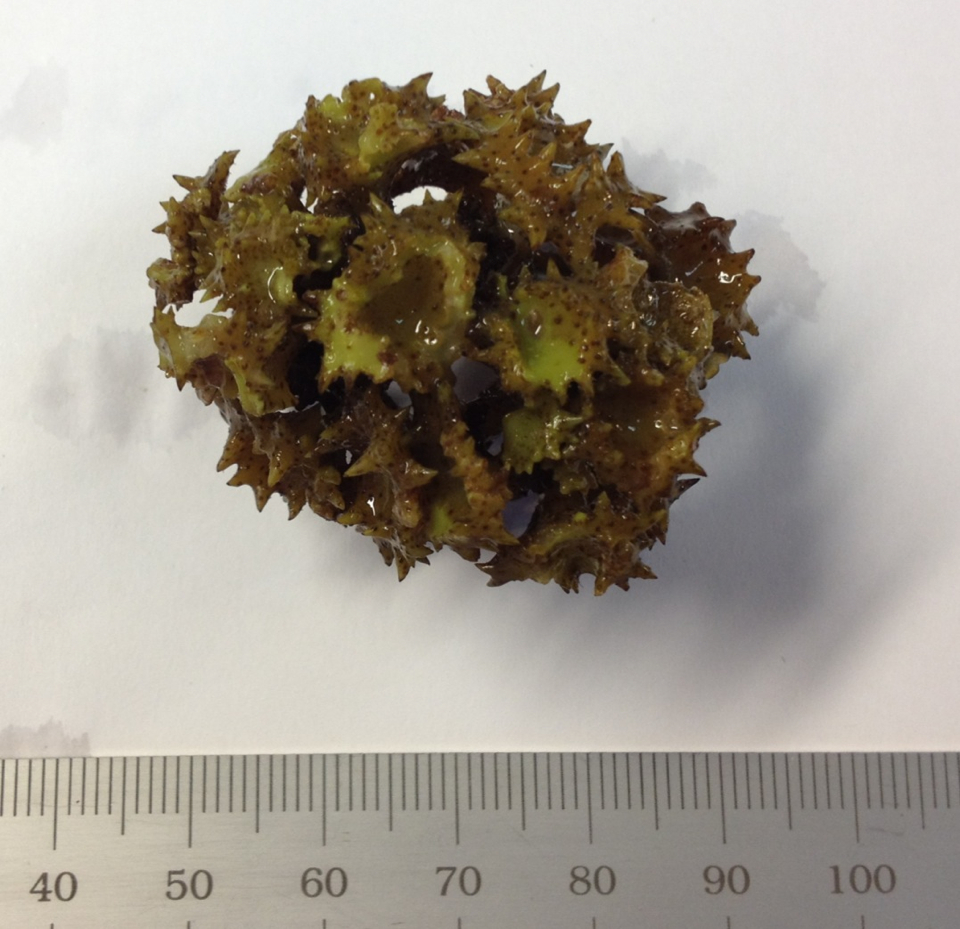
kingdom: Chromista
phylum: Ochrophyta
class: Phaeophyceae
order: Fucales
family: Sargassaceae
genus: Turbinaria
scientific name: Turbinaria ornata
